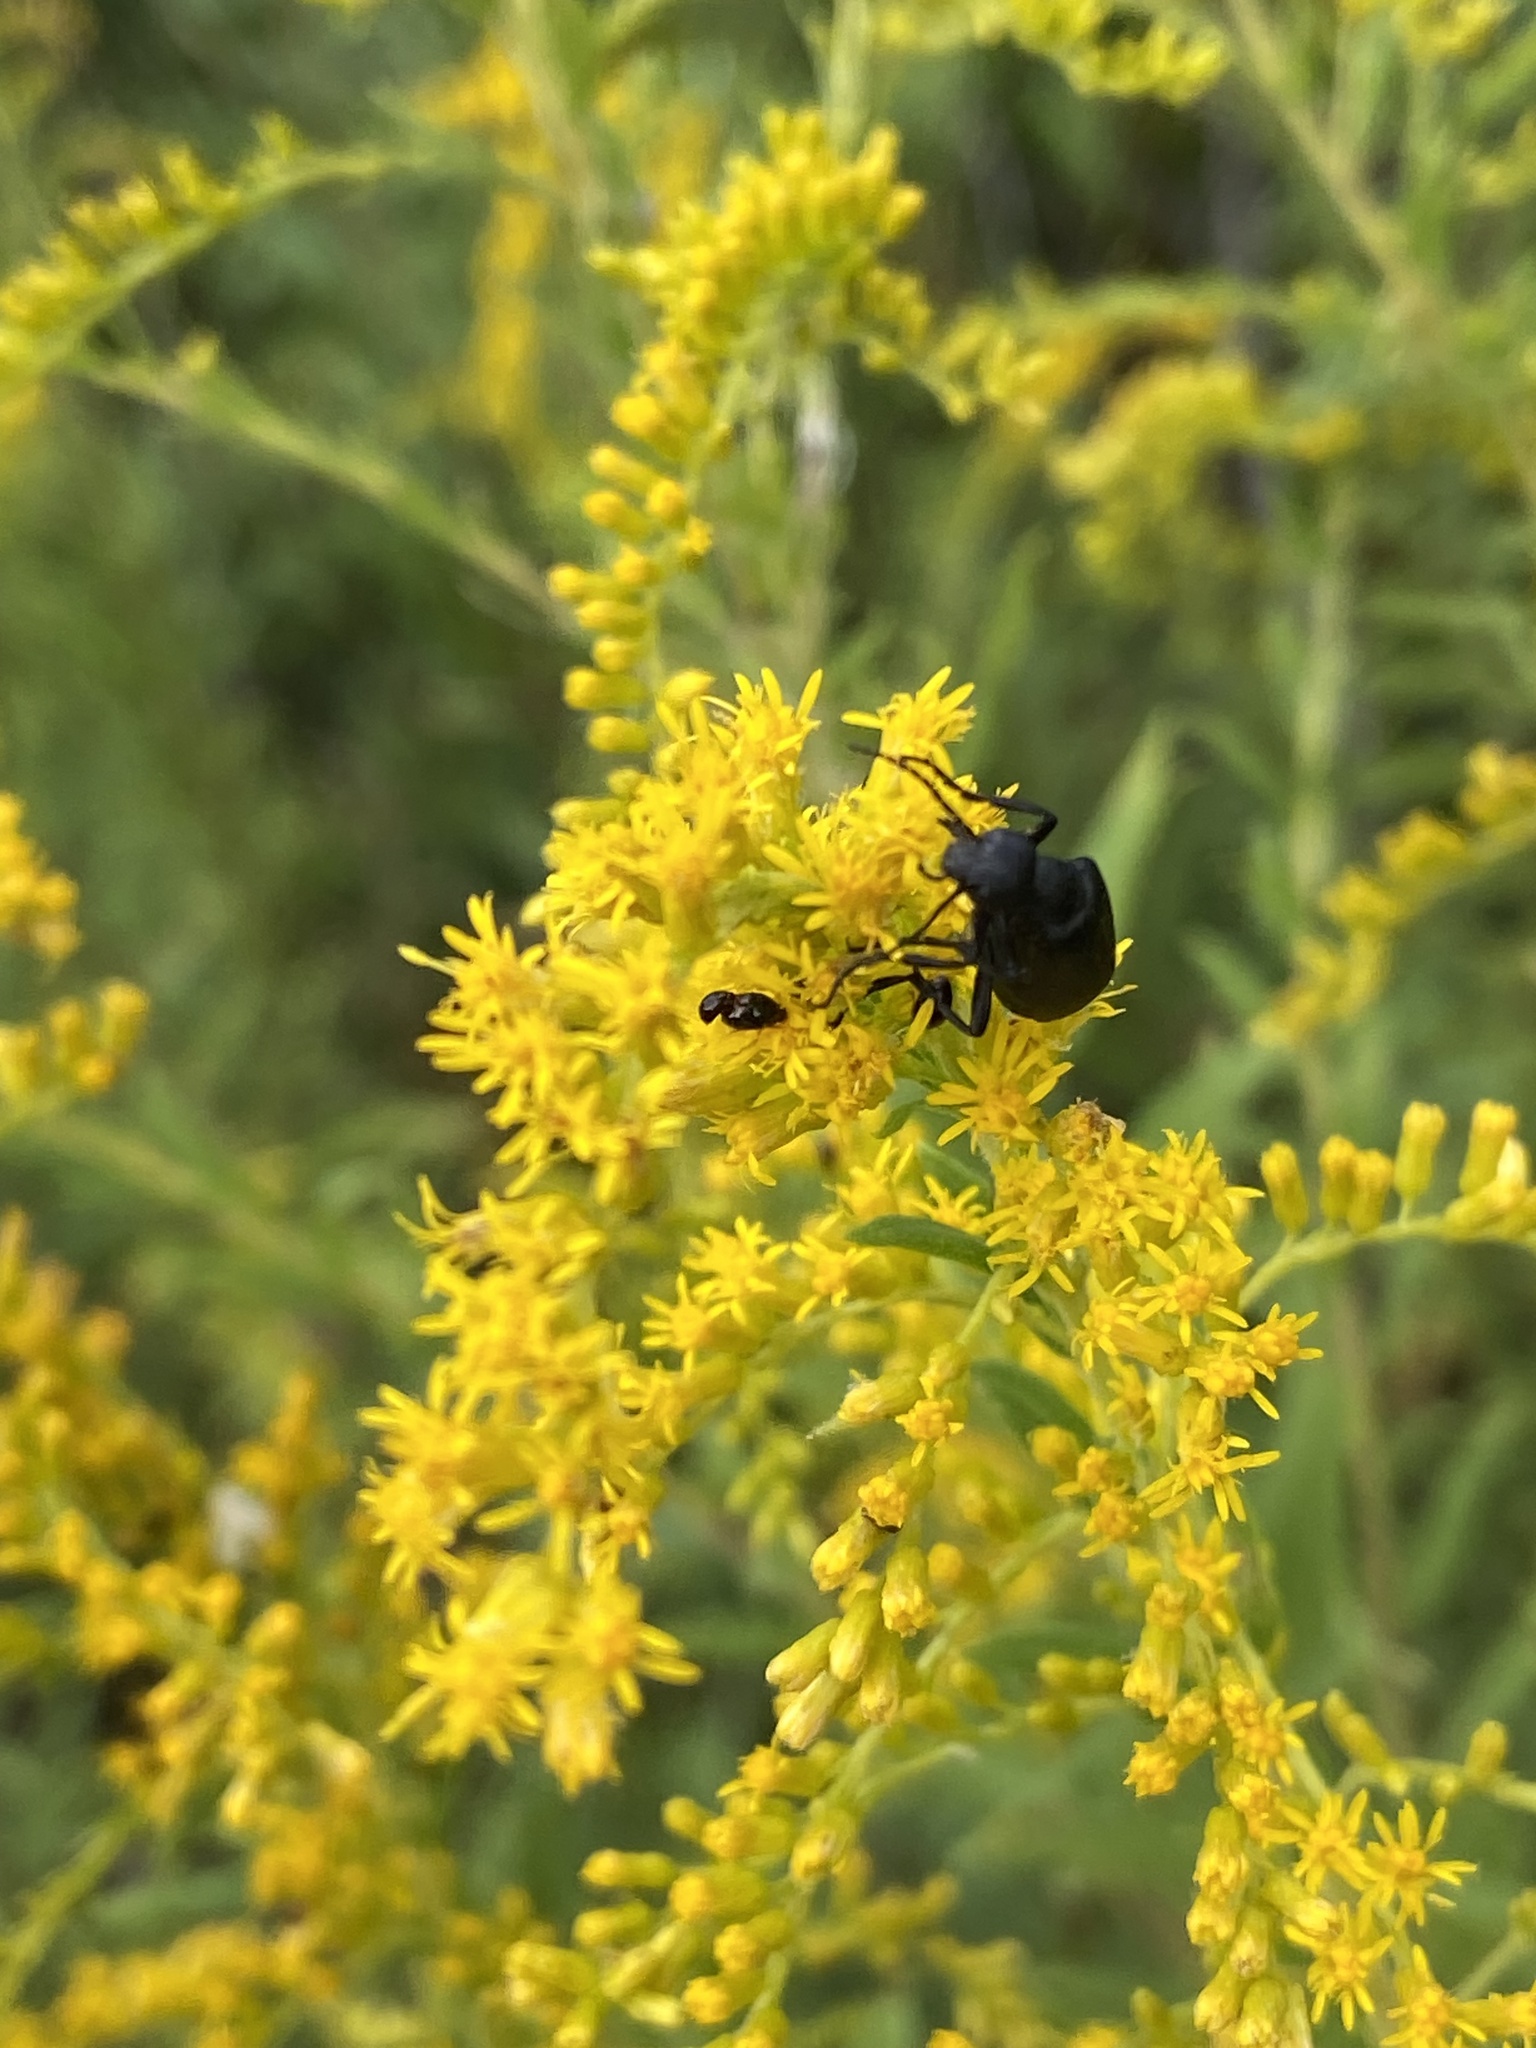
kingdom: Animalia
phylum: Arthropoda
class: Insecta
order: Coleoptera
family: Meloidae
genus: Epicauta
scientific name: Epicauta pensylvanica
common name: Black blister beetle
